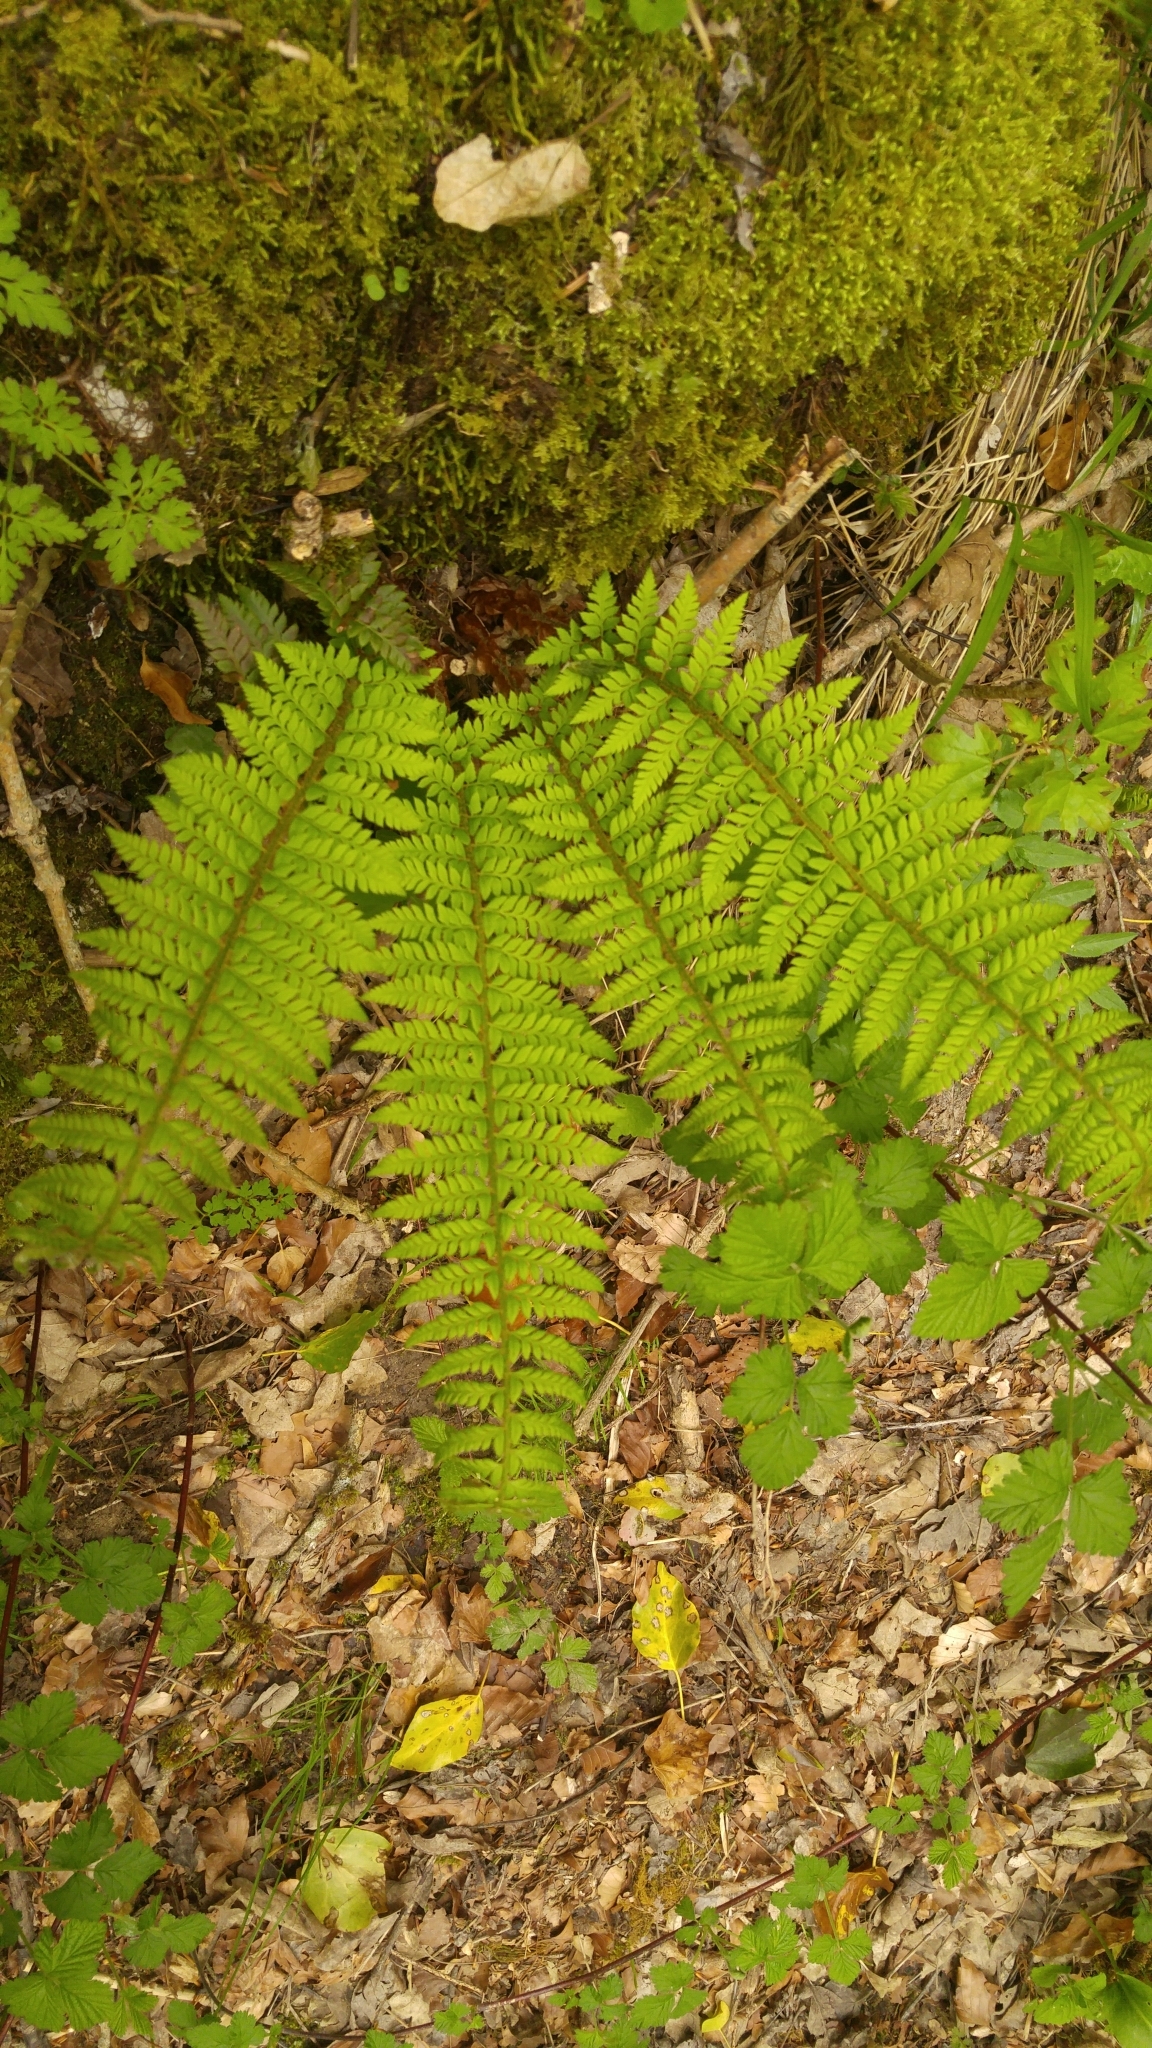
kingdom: Plantae
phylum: Tracheophyta
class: Polypodiopsida
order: Polypodiales
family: Dryopteridaceae
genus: Polystichum
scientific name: Polystichum aculeatum
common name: Hard shield-fern
